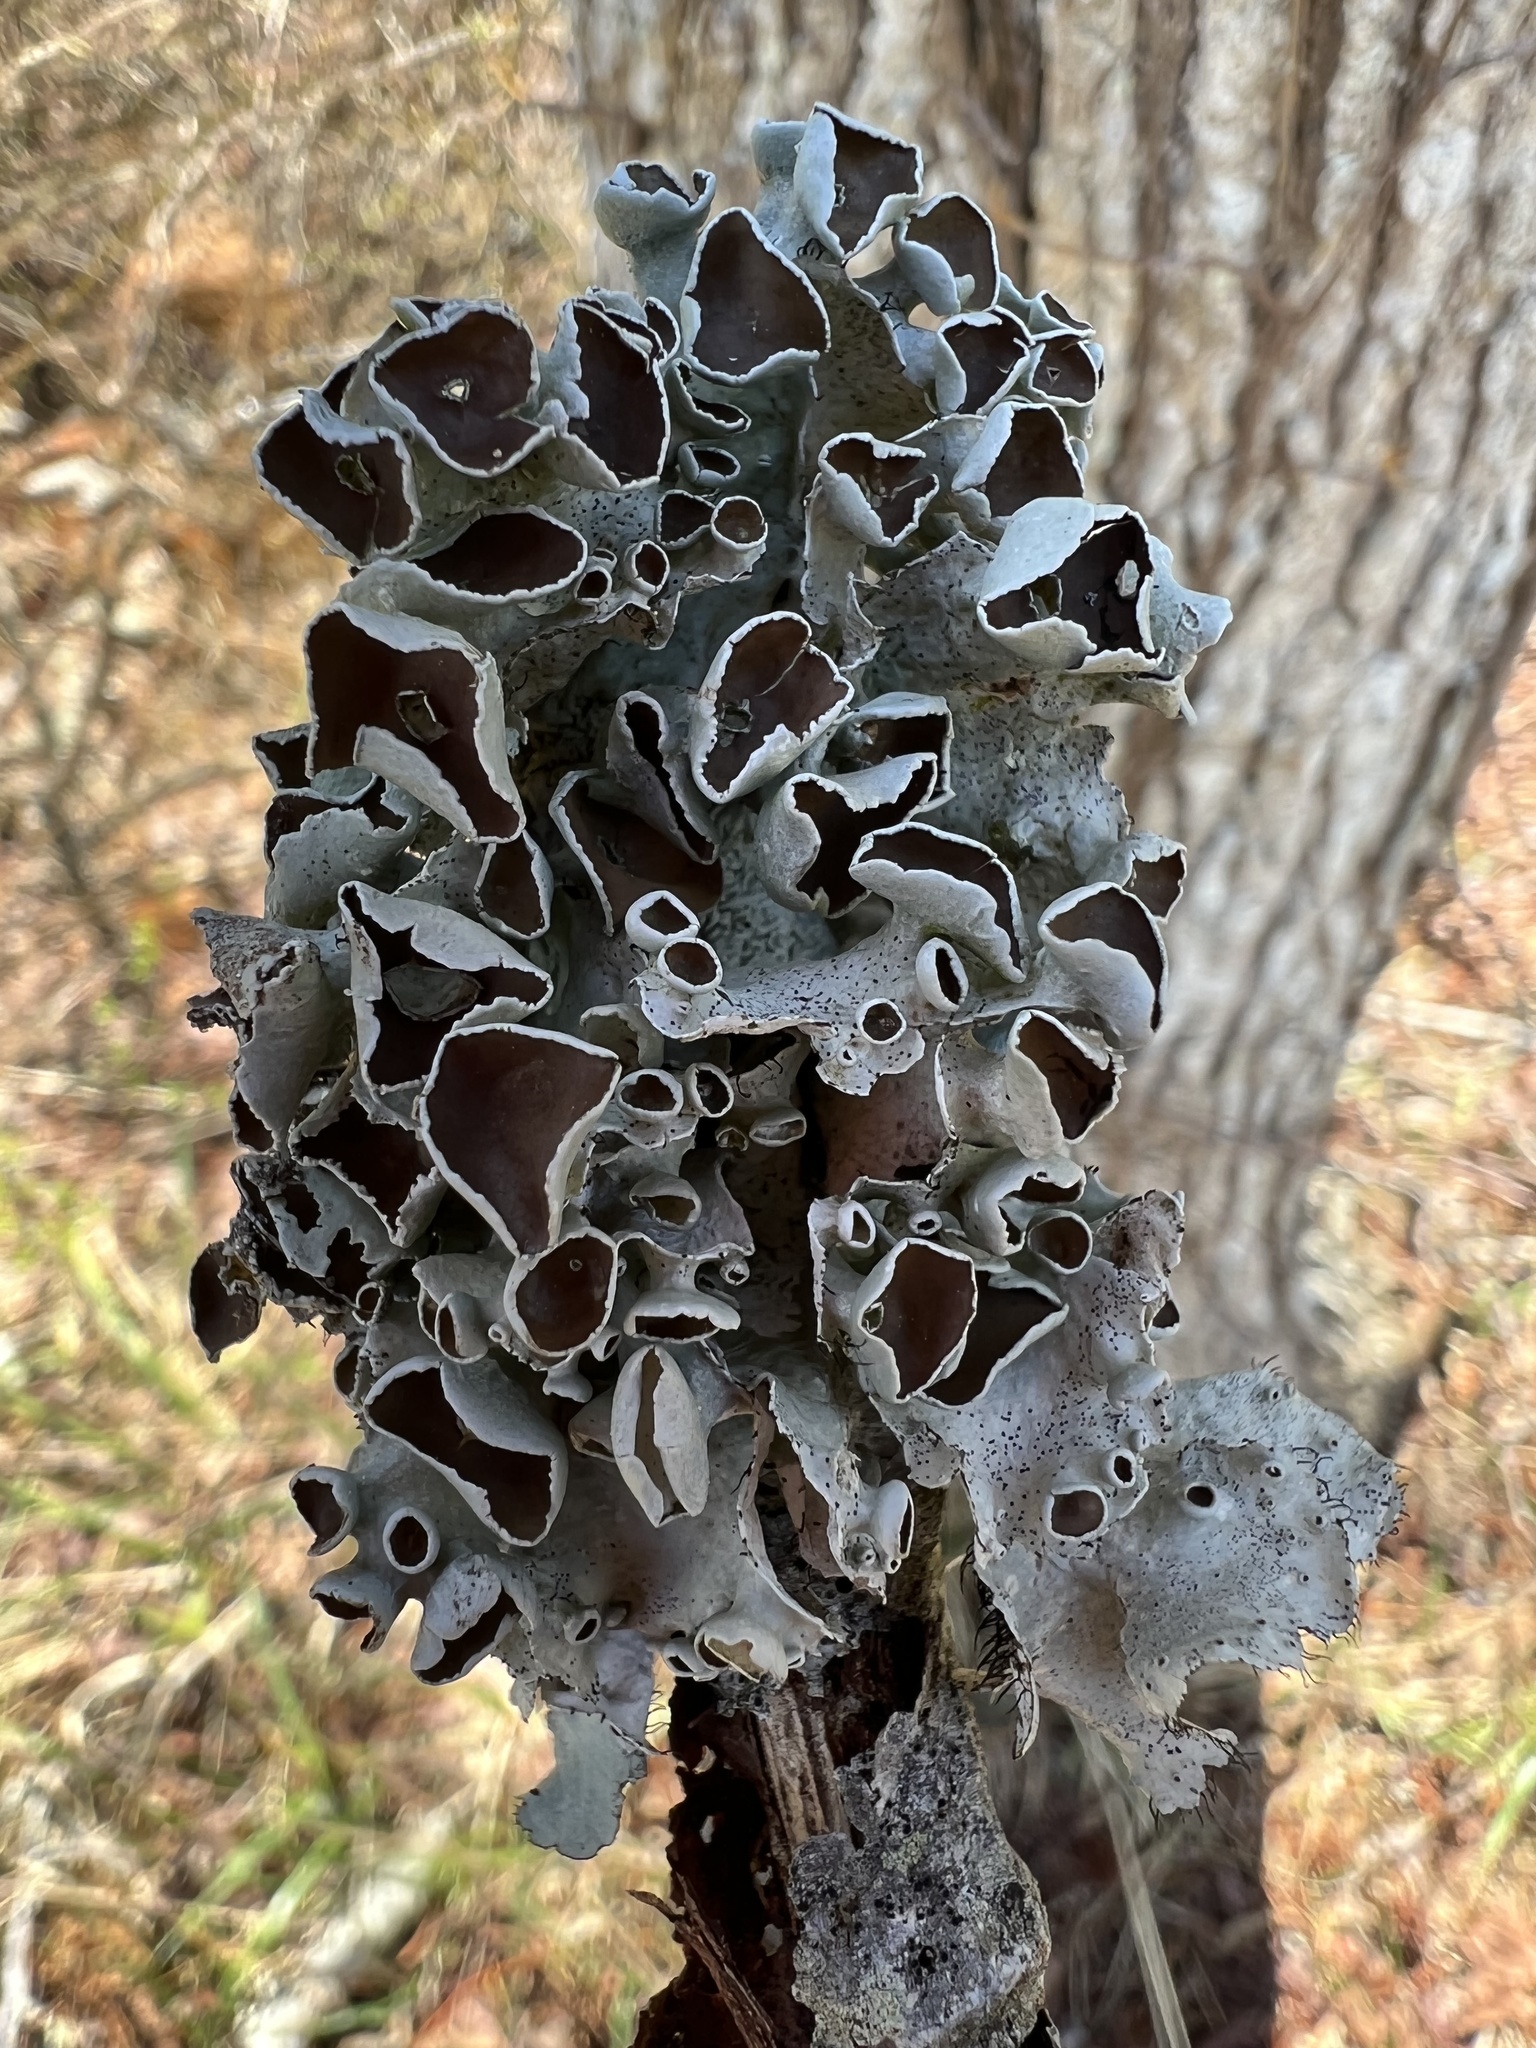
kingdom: Fungi
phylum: Ascomycota
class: Lecanoromycetes
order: Lecanorales
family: Parmeliaceae
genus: Parmotrema
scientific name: Parmotrema perforatum
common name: Perforated ruffle lichen
